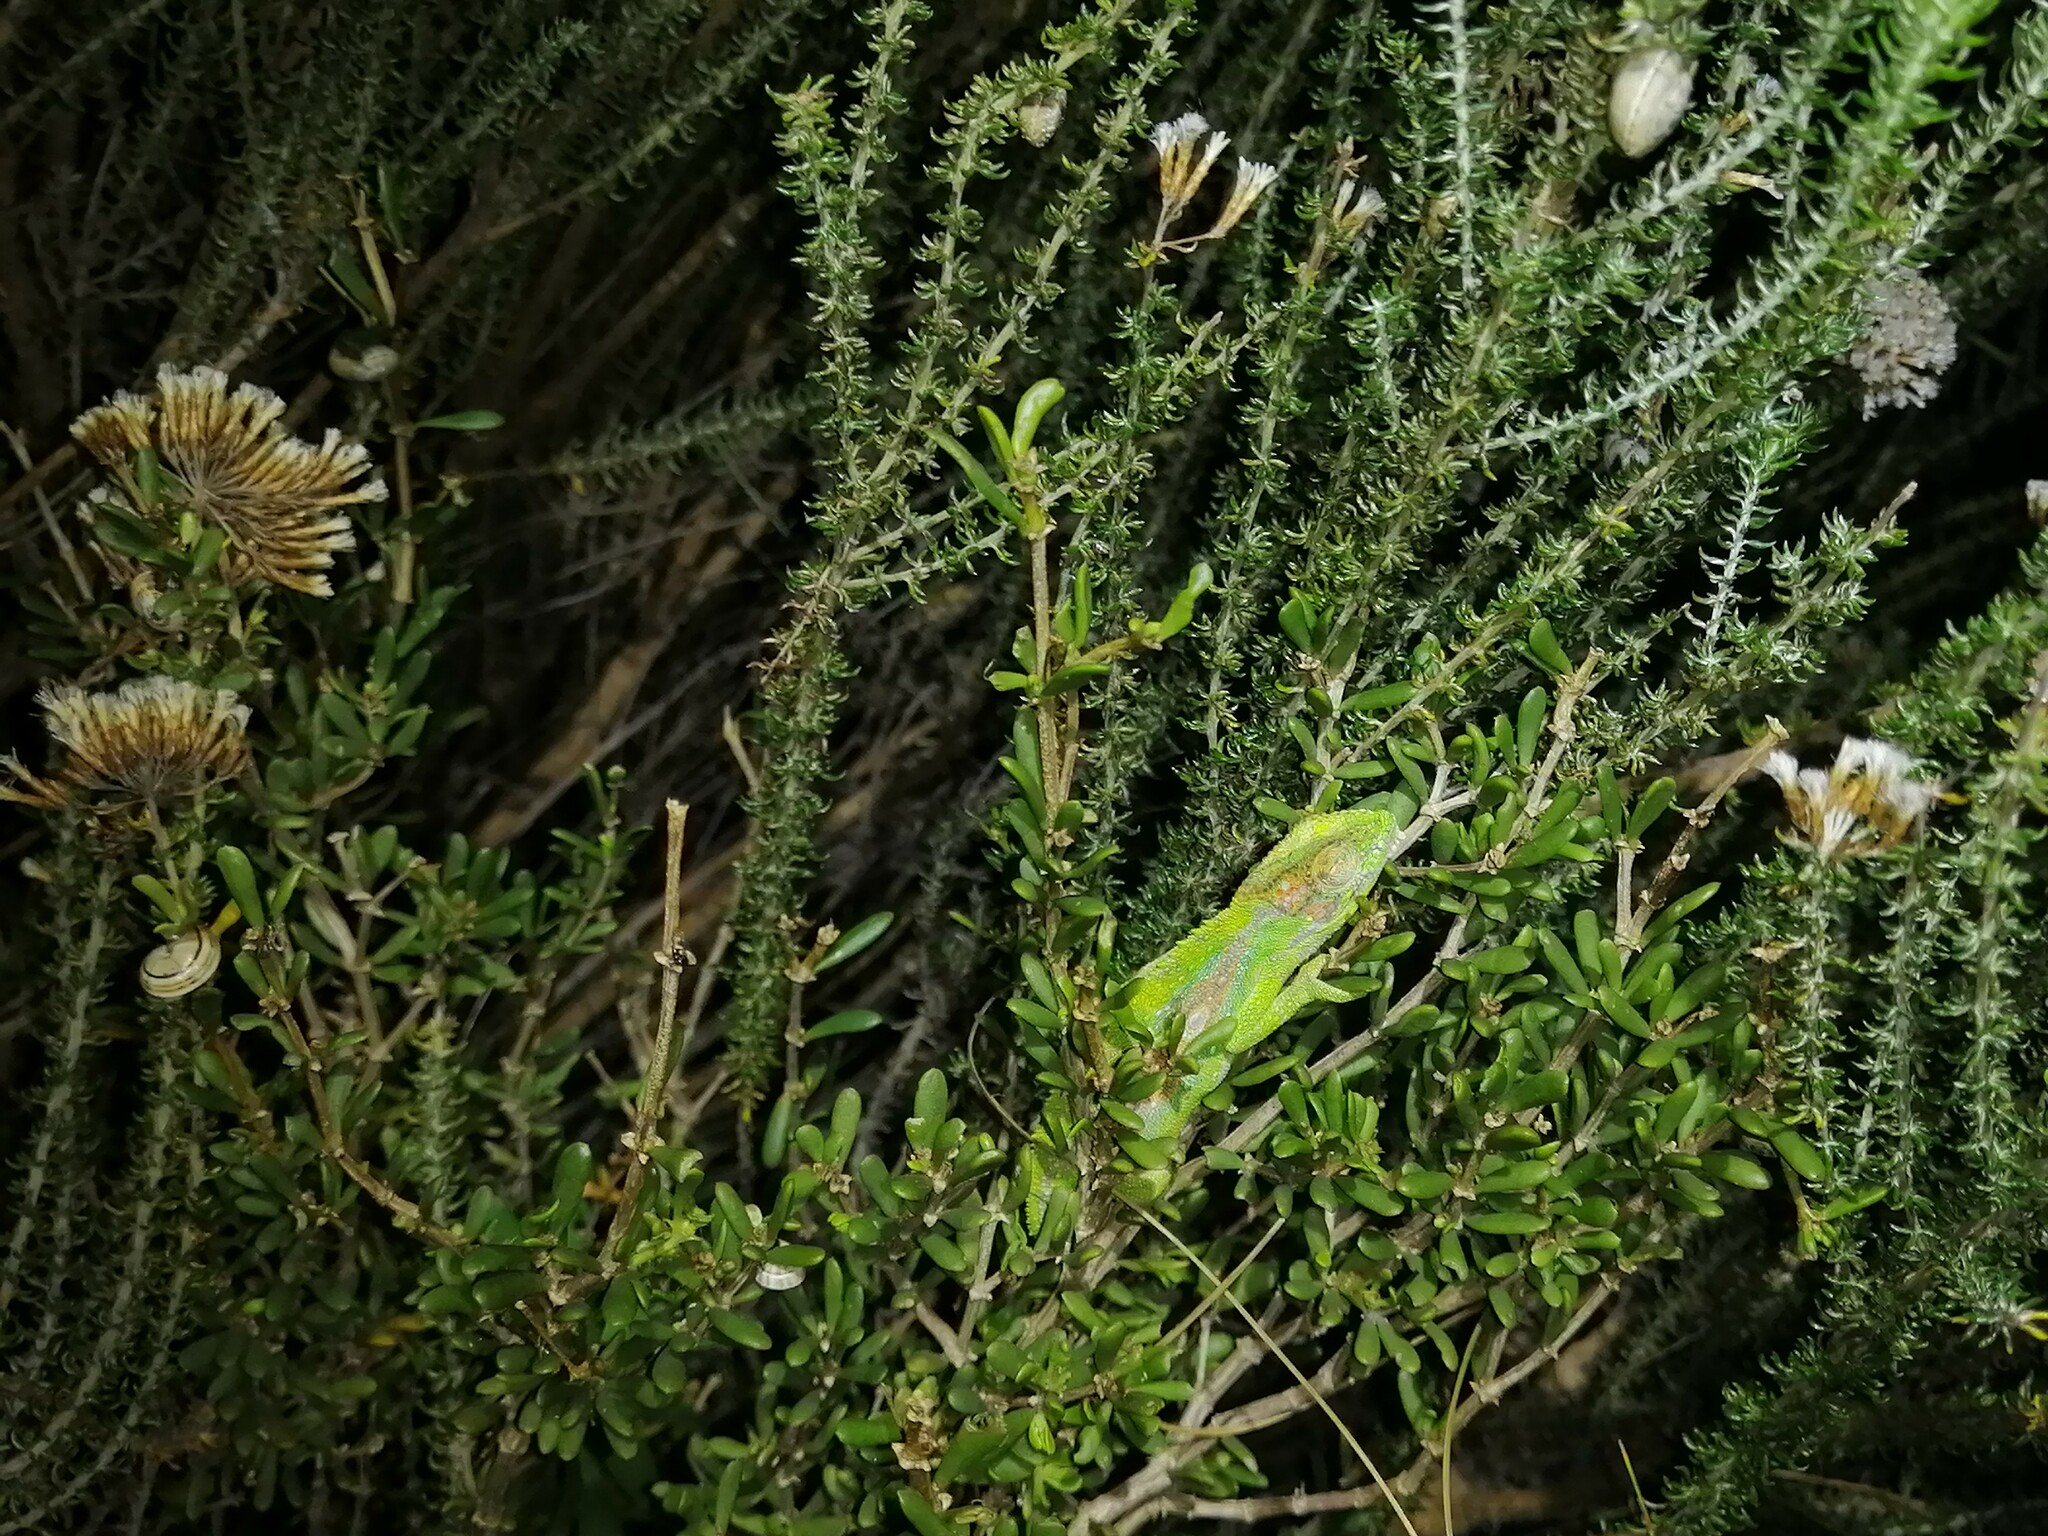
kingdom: Animalia
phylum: Chordata
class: Squamata
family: Chamaeleonidae
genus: Bradypodion
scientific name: Bradypodion pumilum
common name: Cape dwarf chameleon
